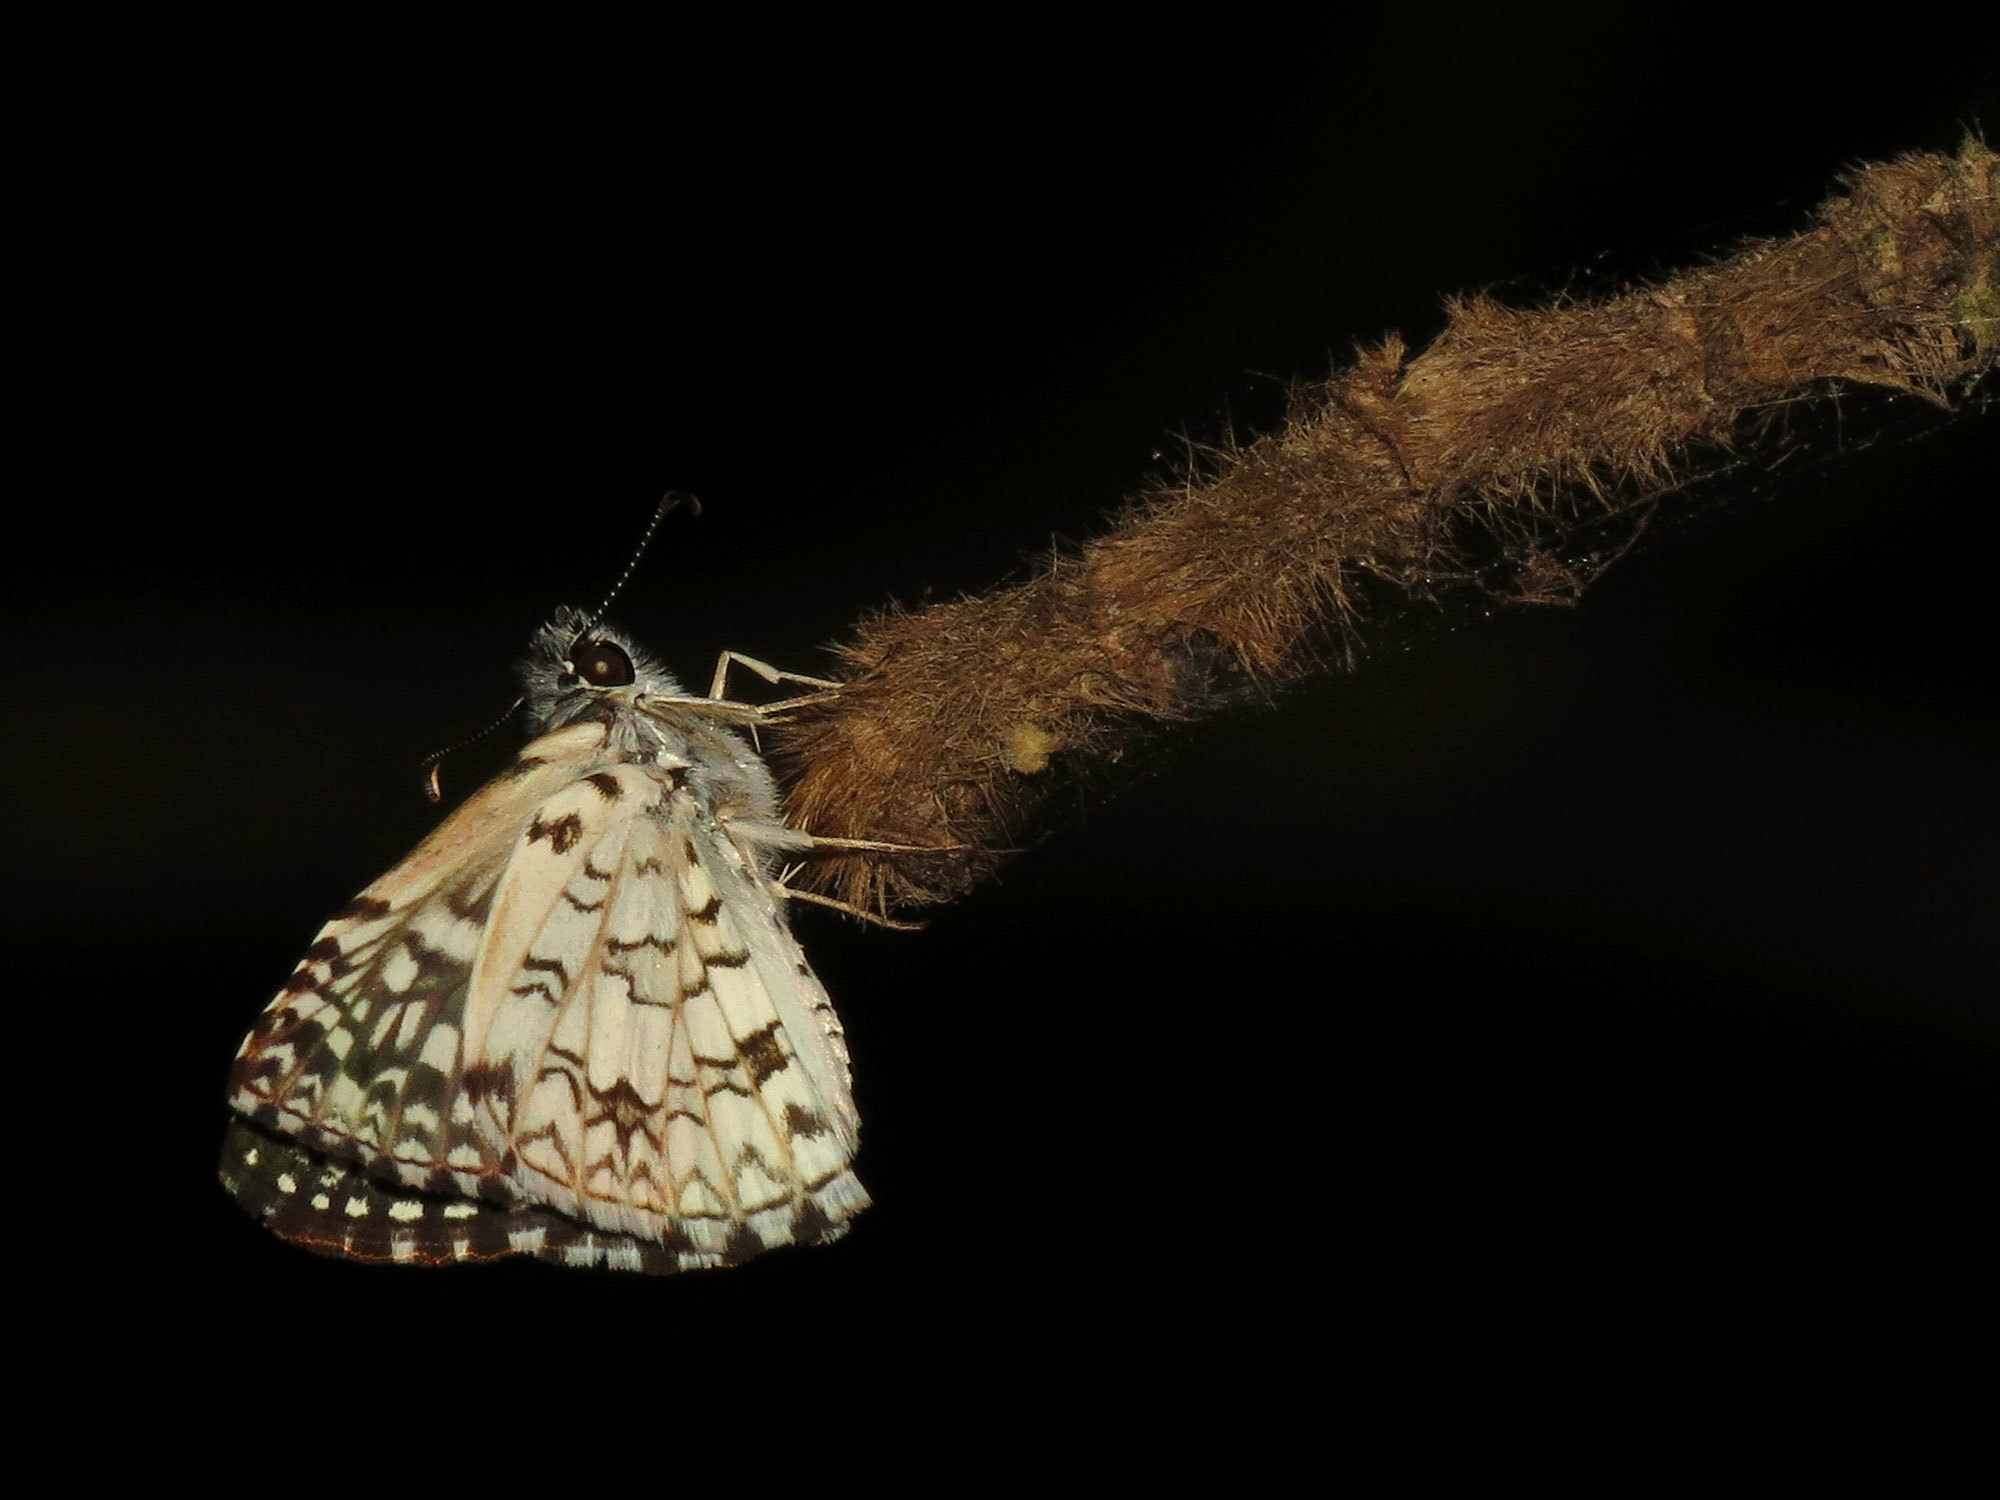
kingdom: Animalia
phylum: Arthropoda
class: Insecta
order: Lepidoptera
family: Hesperiidae
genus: Pyrgus
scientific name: Pyrgus oileus
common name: Tropical checkered-skipper
